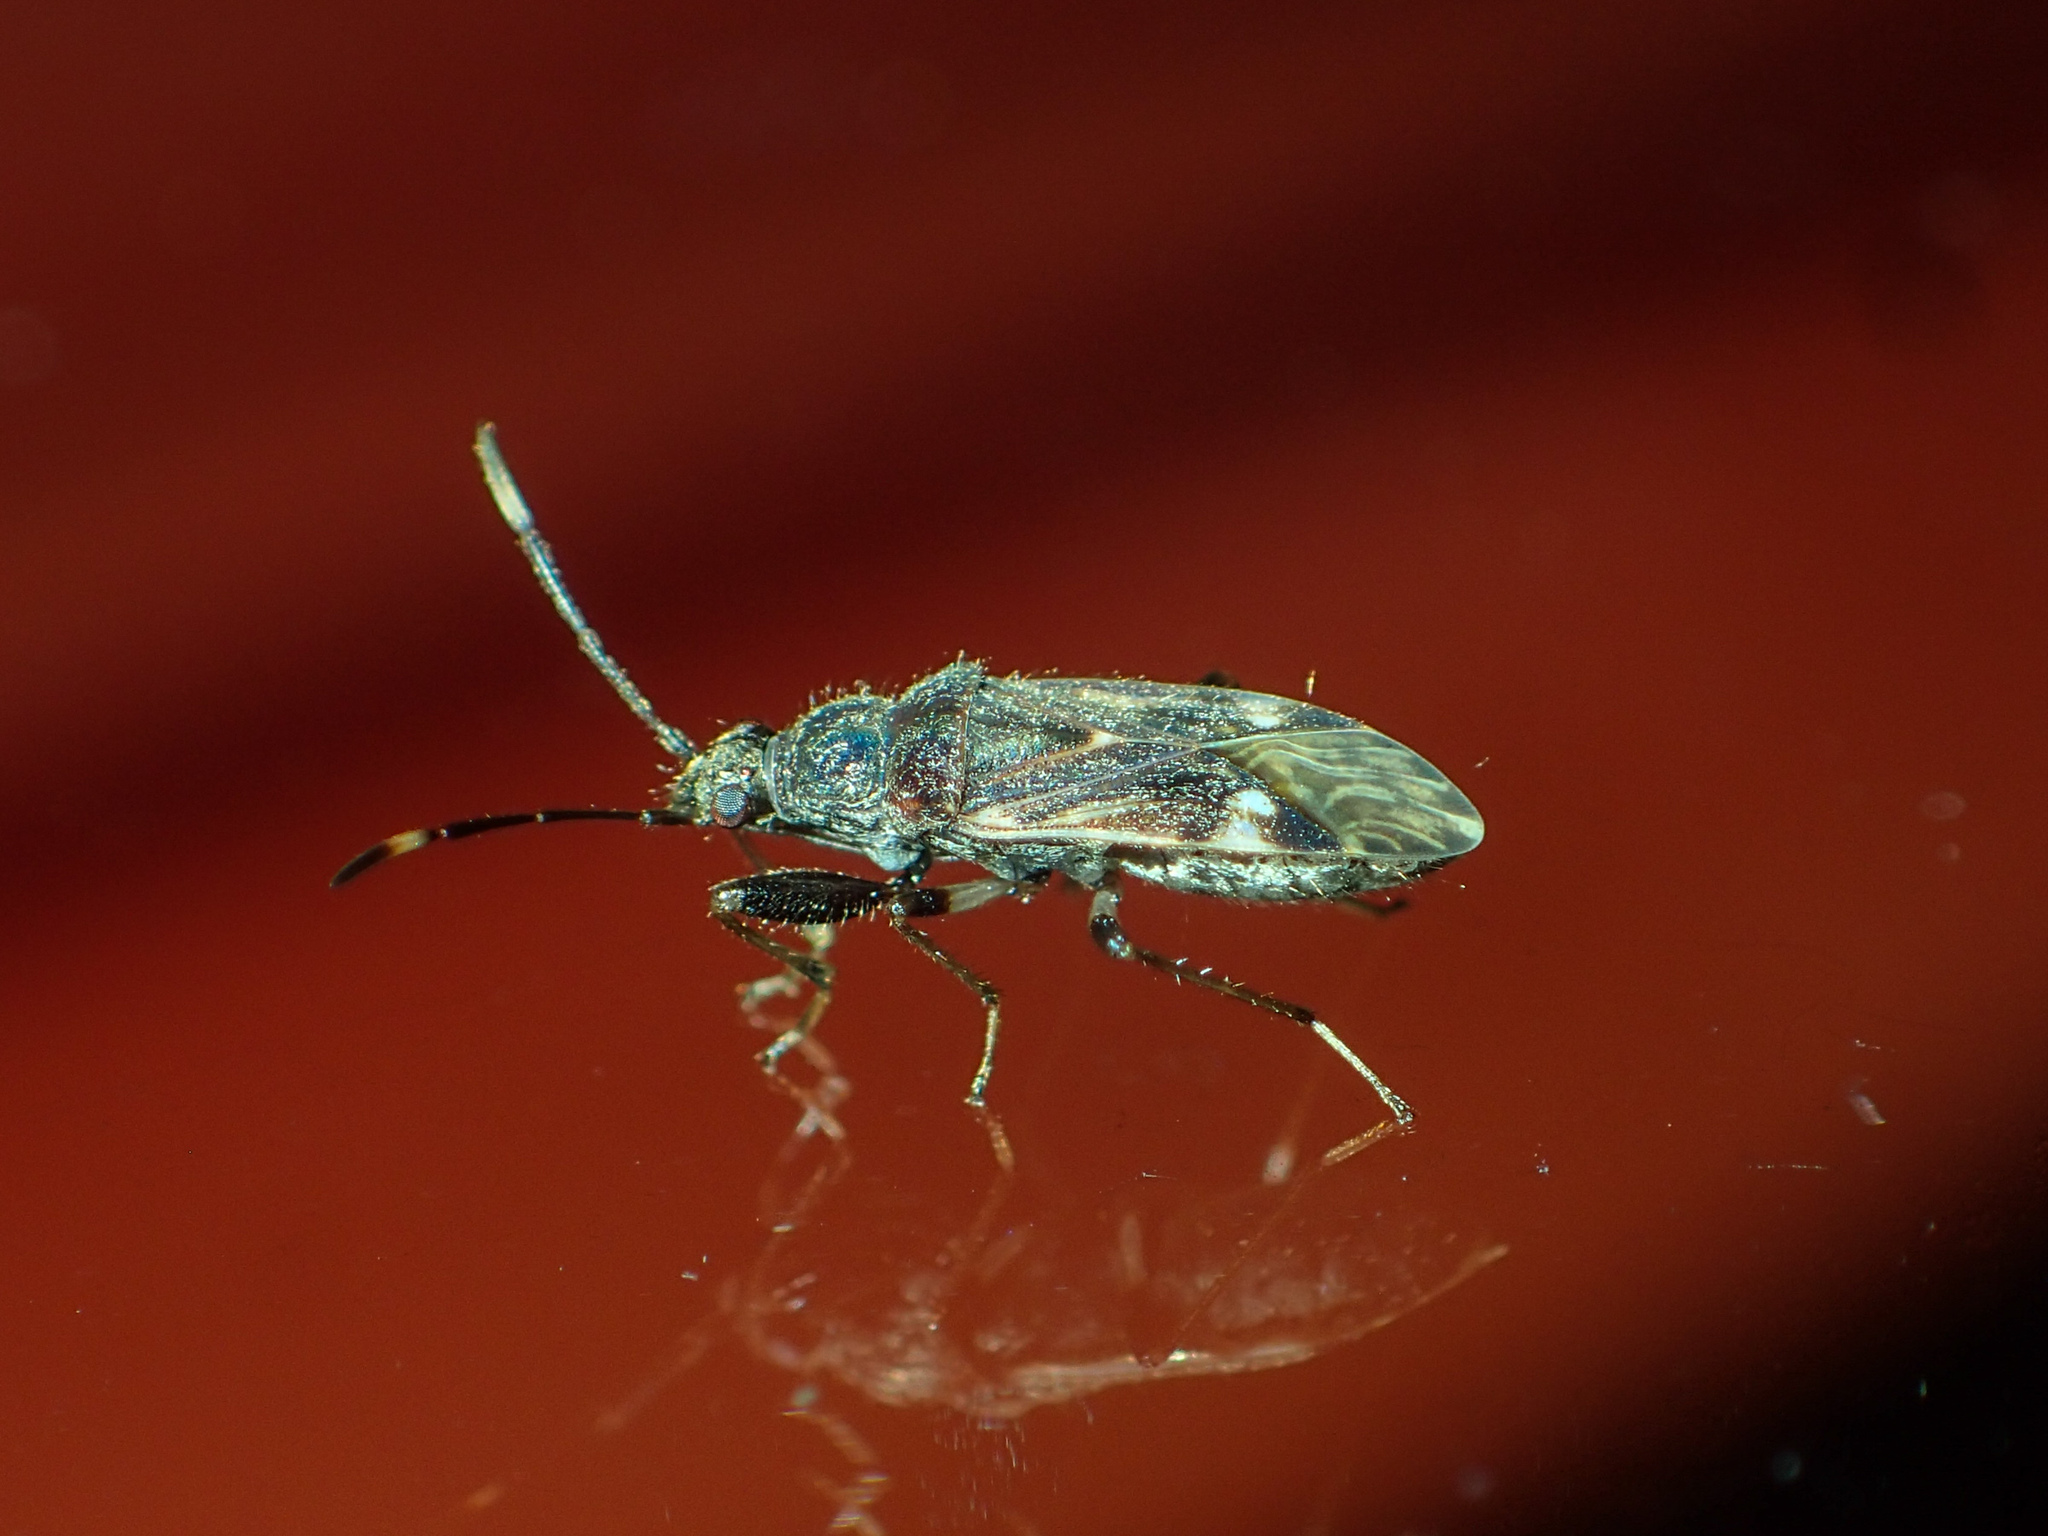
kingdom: Animalia
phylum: Arthropoda
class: Insecta
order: Hemiptera
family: Rhyparochromidae
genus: Horridipamera
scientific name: Horridipamera nietneri
